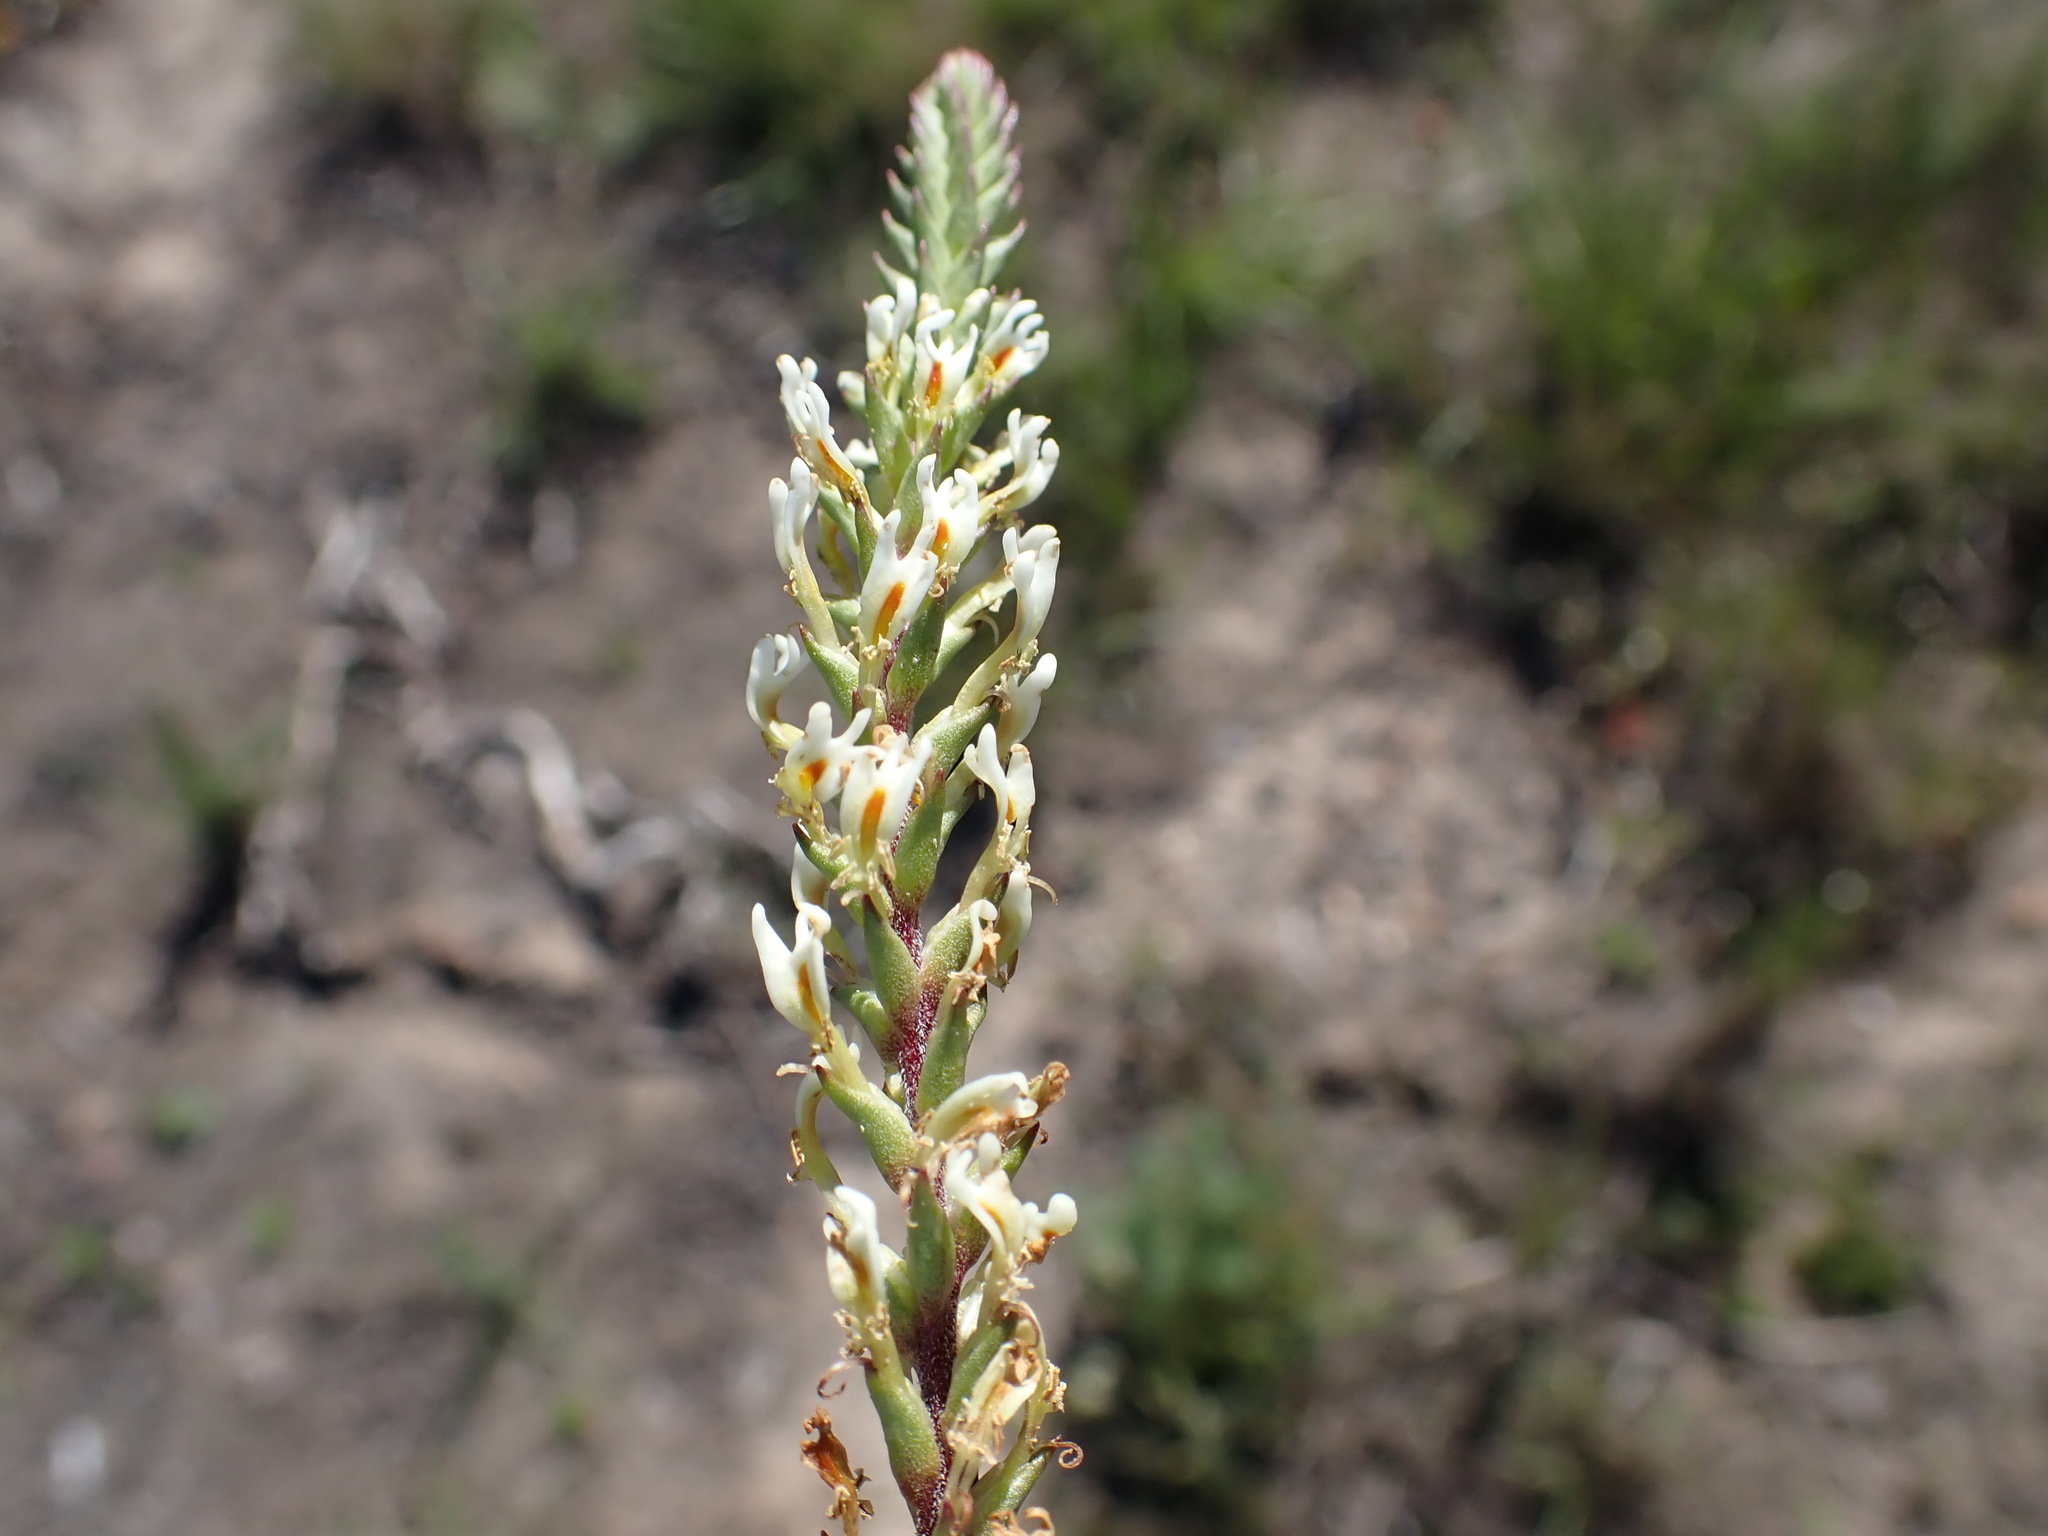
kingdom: Plantae
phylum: Tracheophyta
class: Magnoliopsida
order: Lamiales
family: Scrophulariaceae
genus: Hebenstretia
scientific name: Hebenstretia integrifolia
